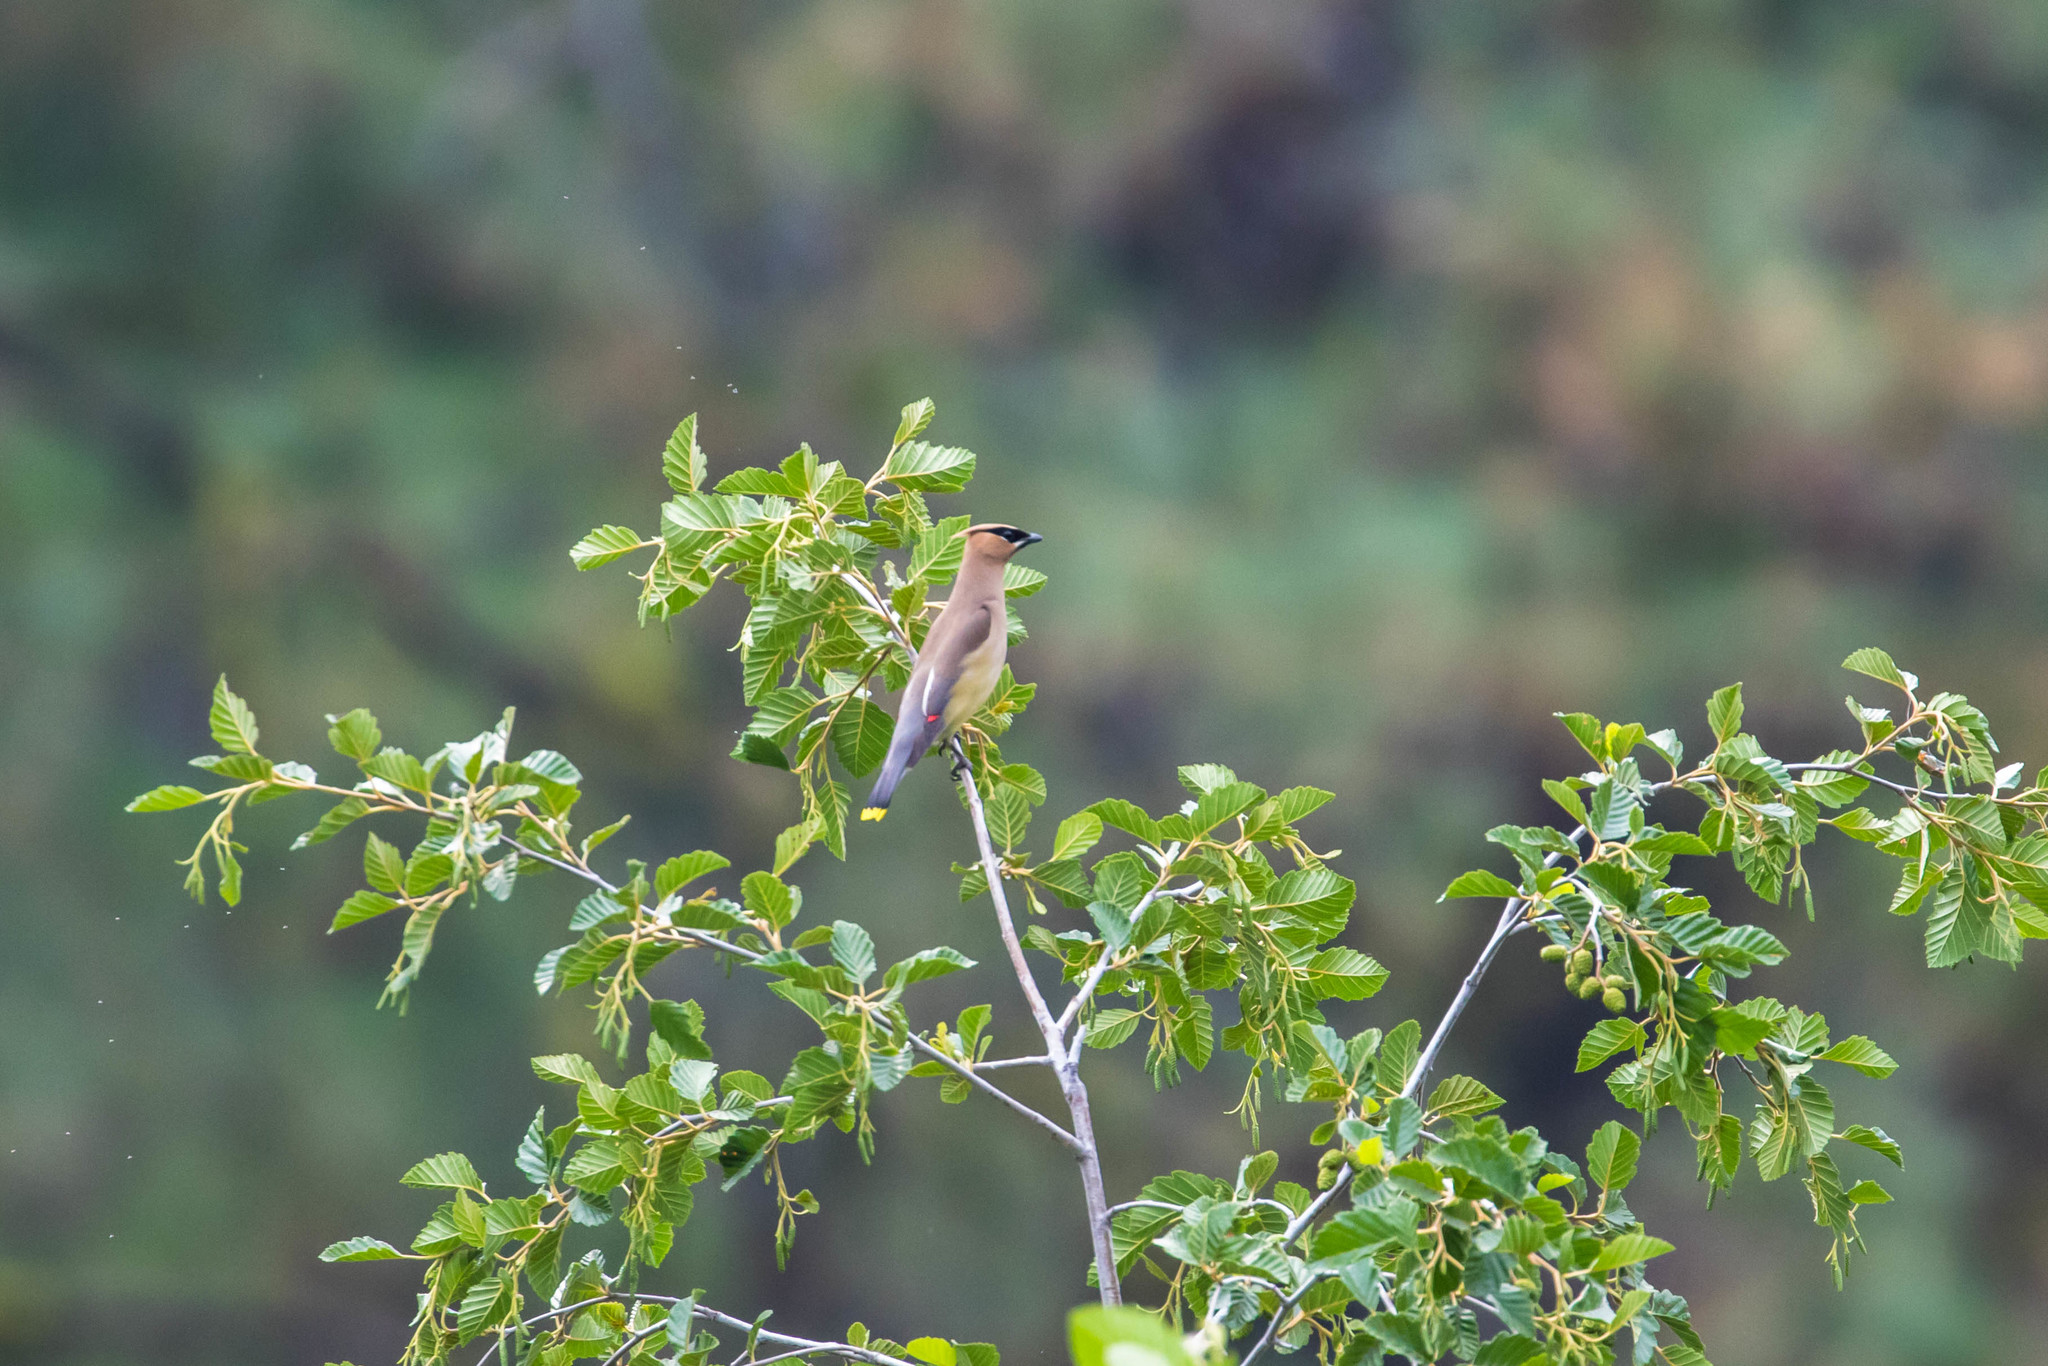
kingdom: Animalia
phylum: Chordata
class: Aves
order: Passeriformes
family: Bombycillidae
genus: Bombycilla
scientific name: Bombycilla cedrorum
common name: Cedar waxwing
